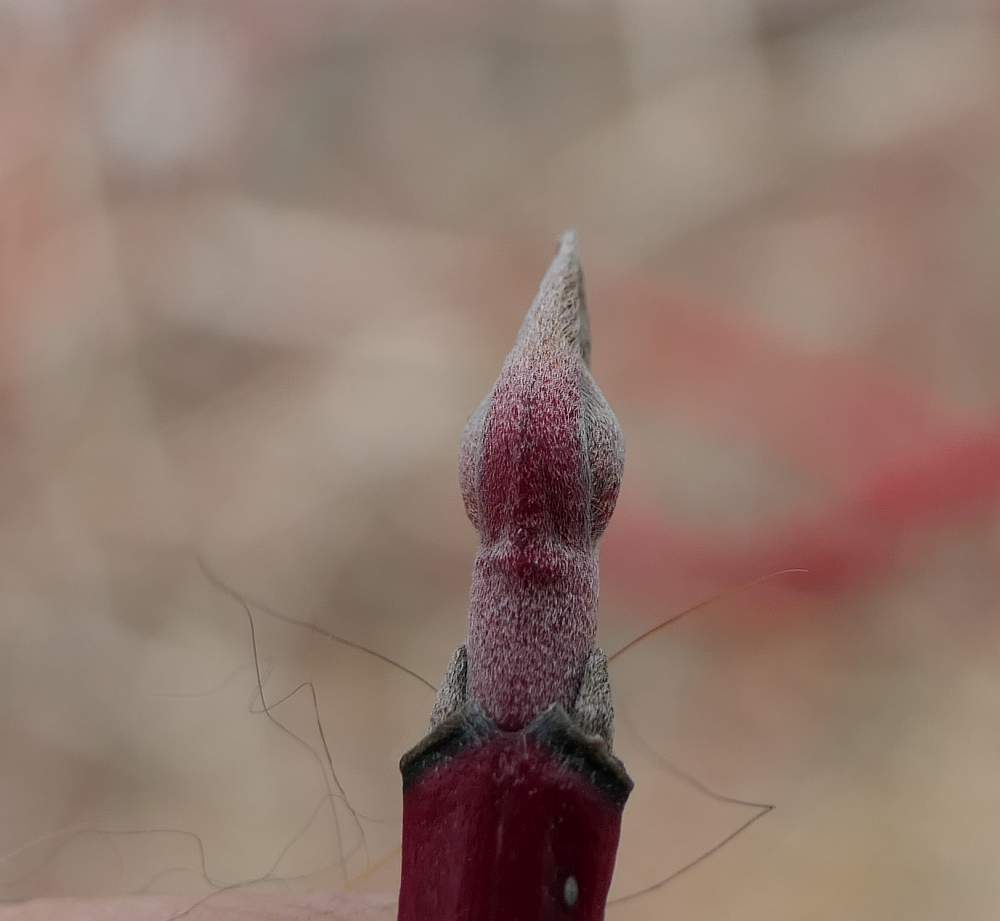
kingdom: Plantae
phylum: Tracheophyta
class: Magnoliopsida
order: Cornales
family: Cornaceae
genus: Cornus
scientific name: Cornus sericea
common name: Red-osier dogwood
